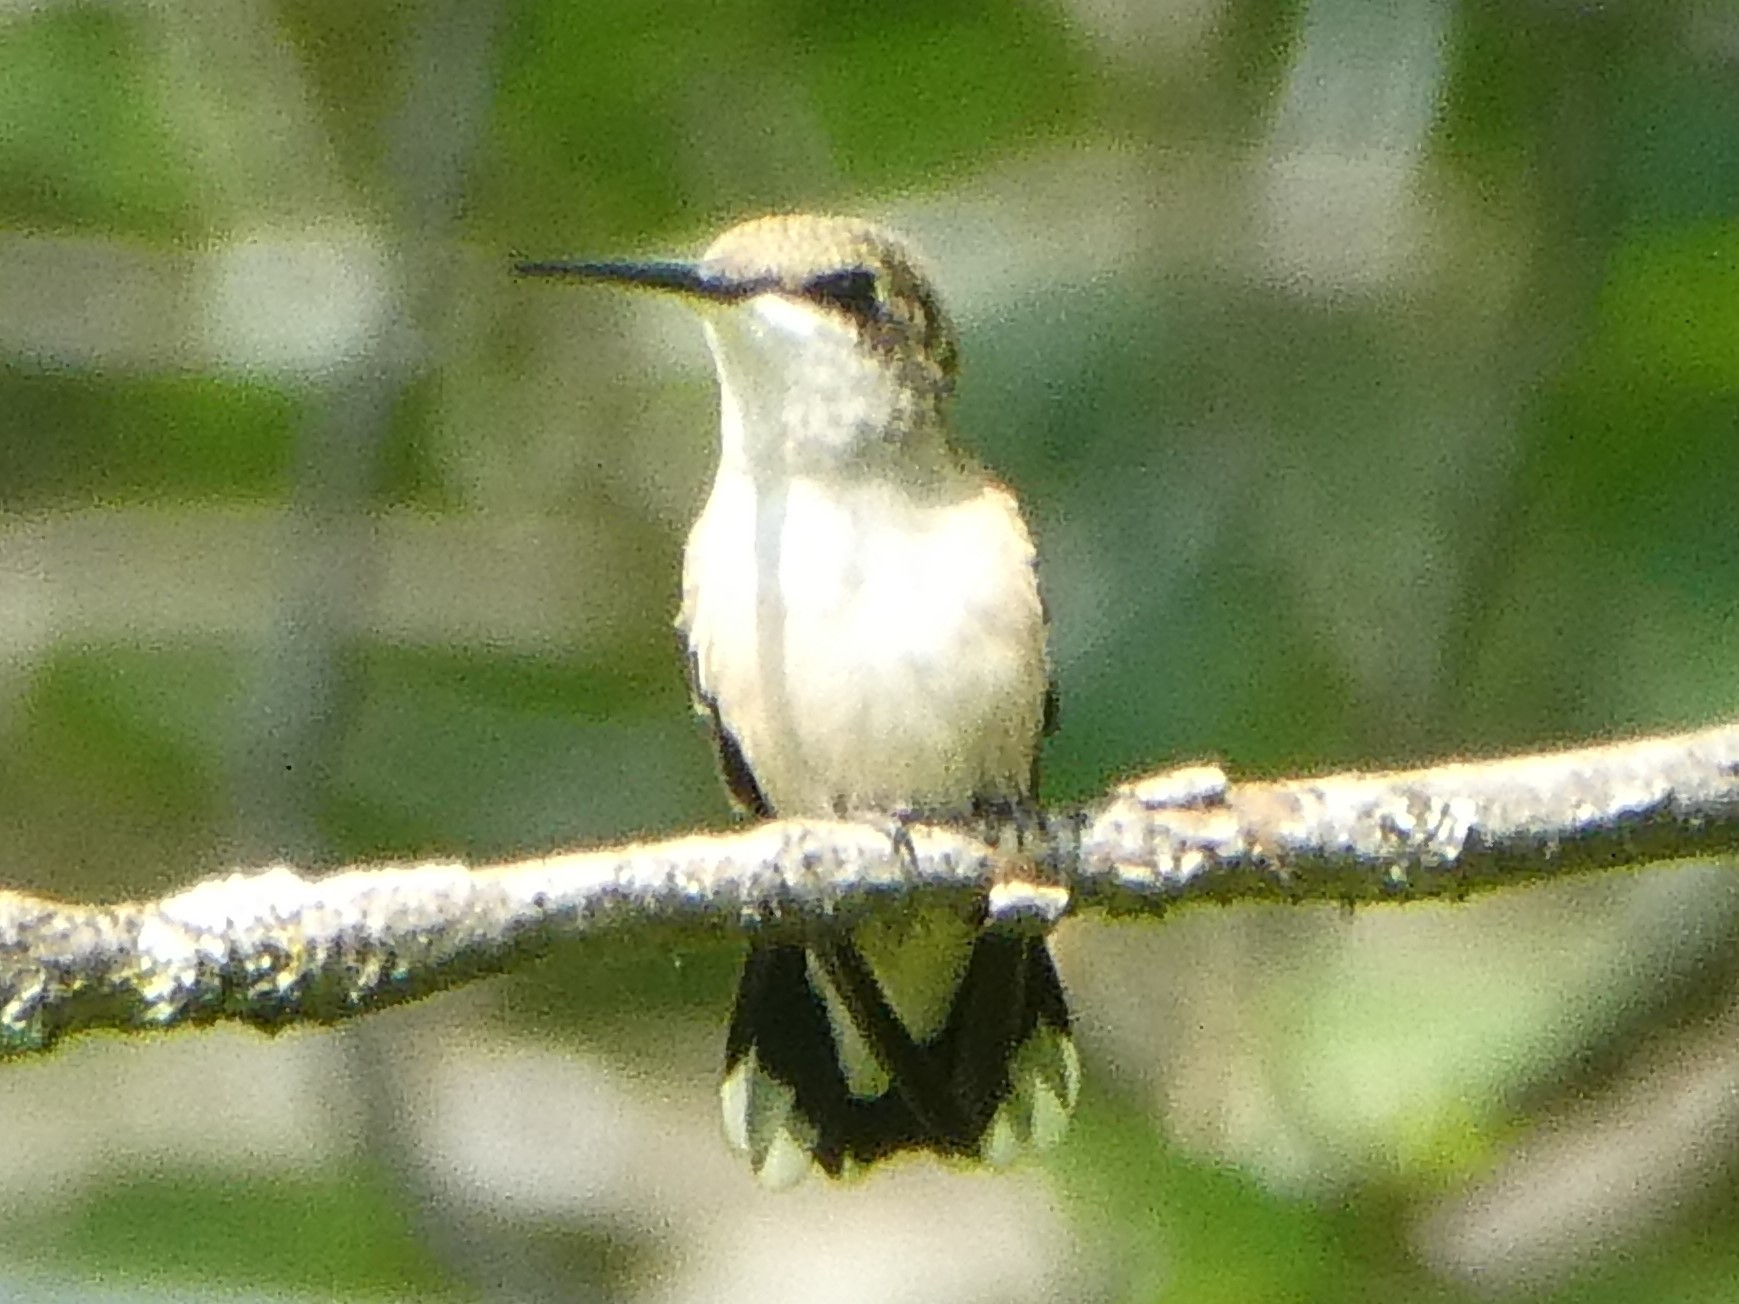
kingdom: Animalia
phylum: Chordata
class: Aves
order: Apodiformes
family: Trochilidae
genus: Archilochus
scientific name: Archilochus colubris
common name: Ruby-throated hummingbird
